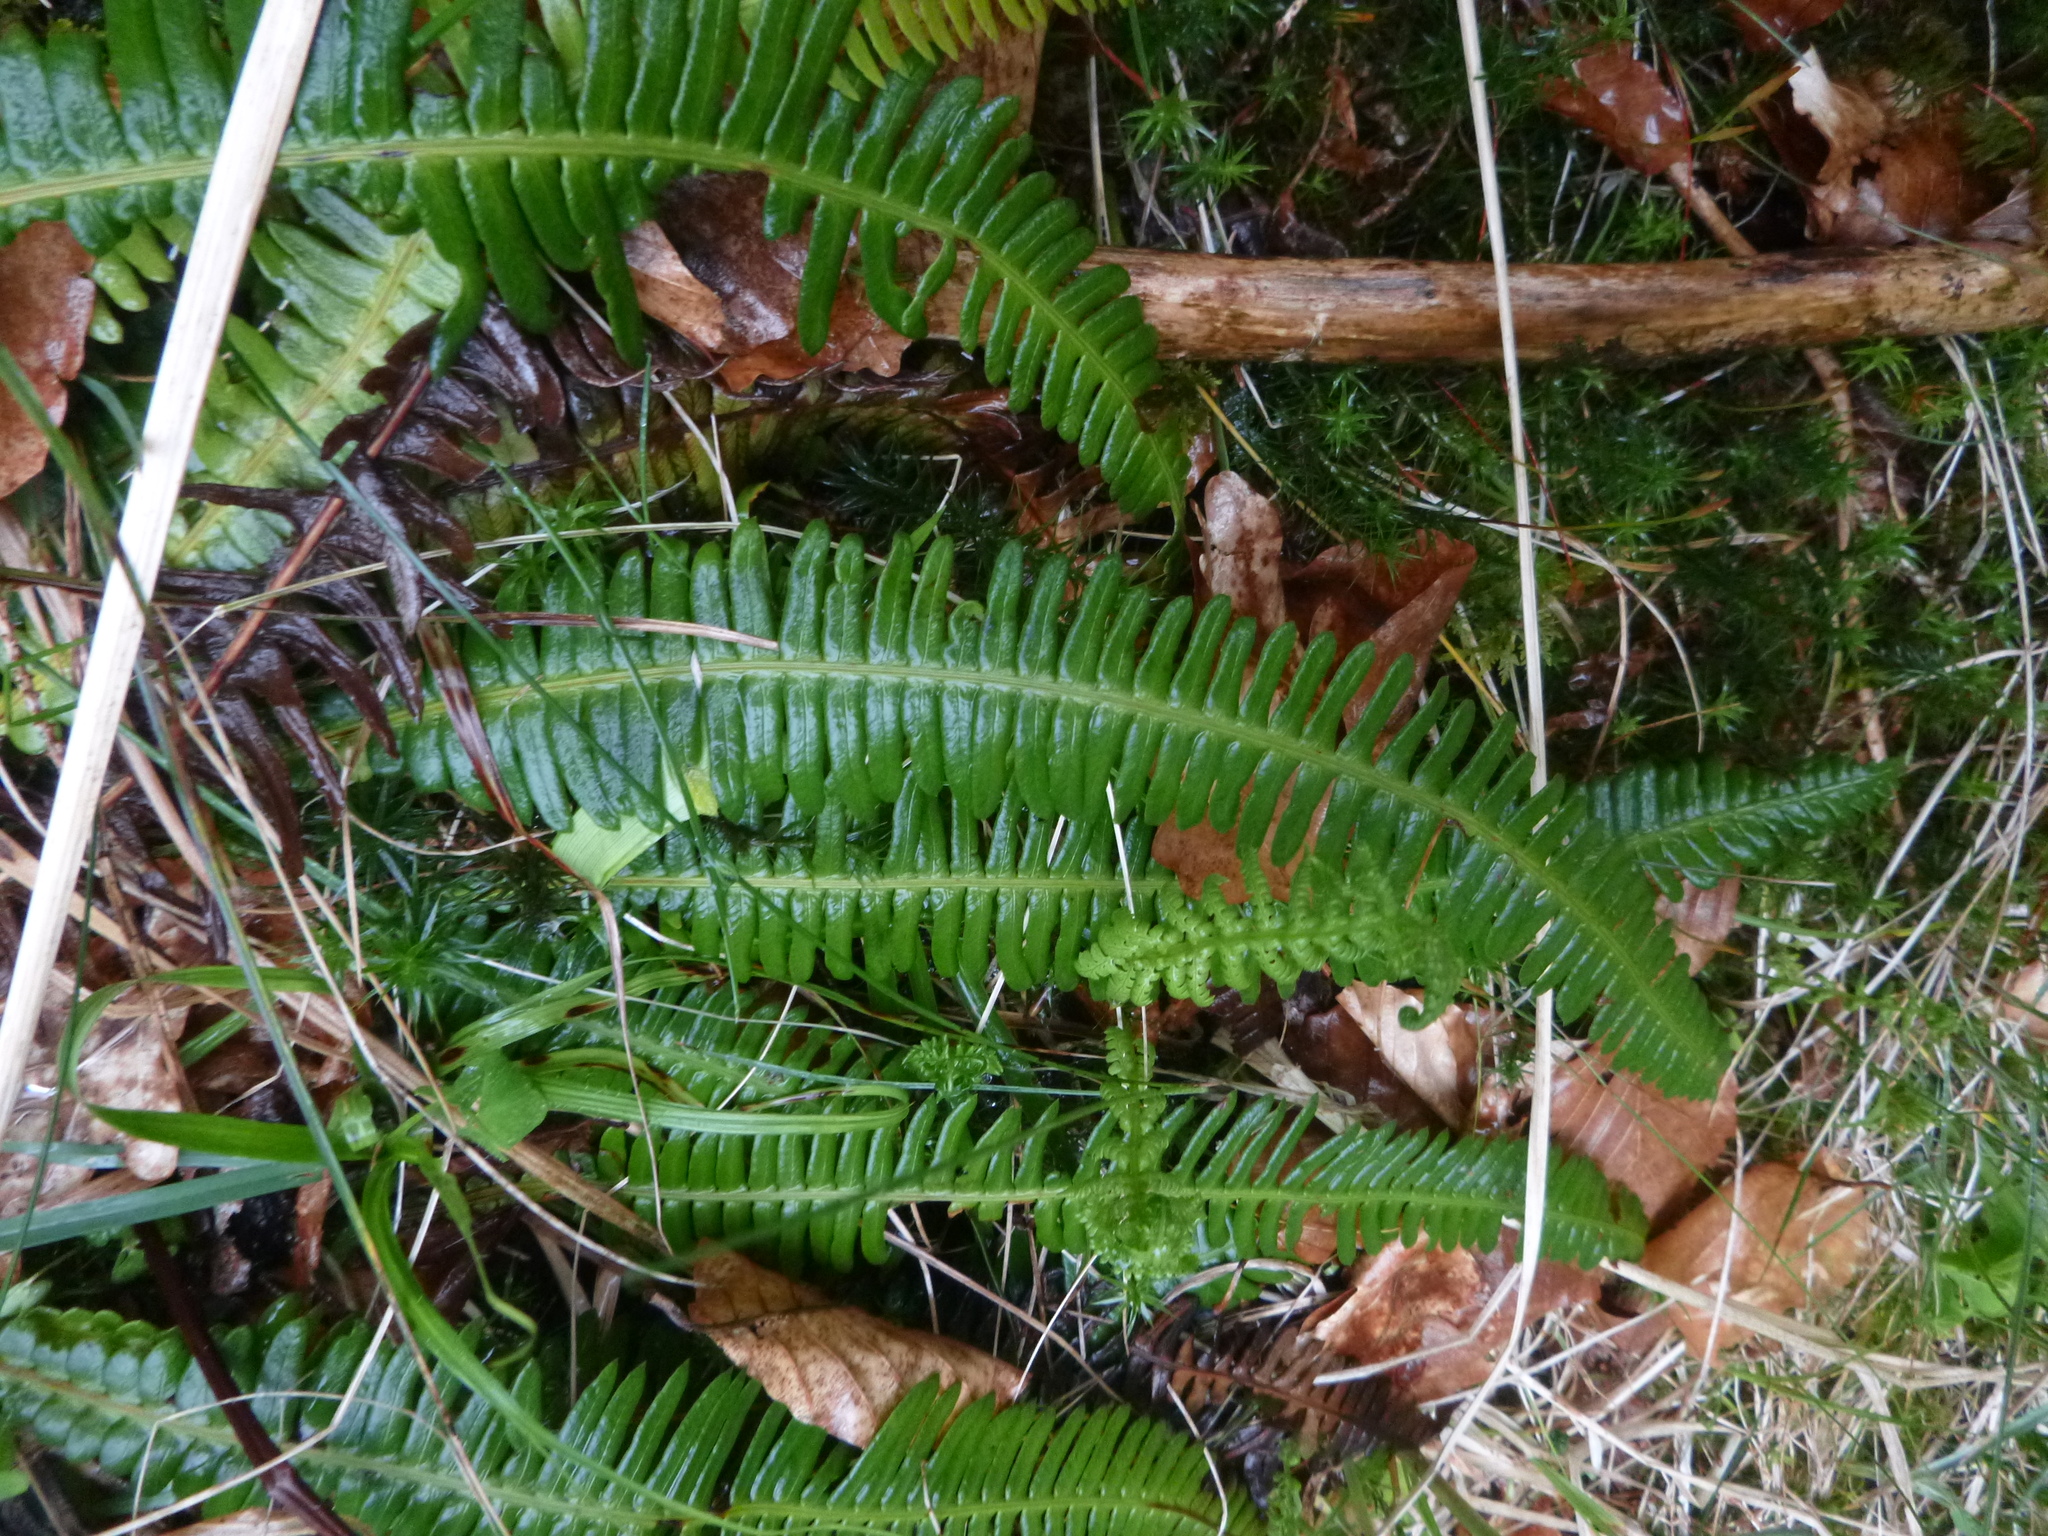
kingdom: Plantae
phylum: Tracheophyta
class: Polypodiopsida
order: Polypodiales
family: Blechnaceae
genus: Struthiopteris
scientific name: Struthiopteris spicant
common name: Deer fern
